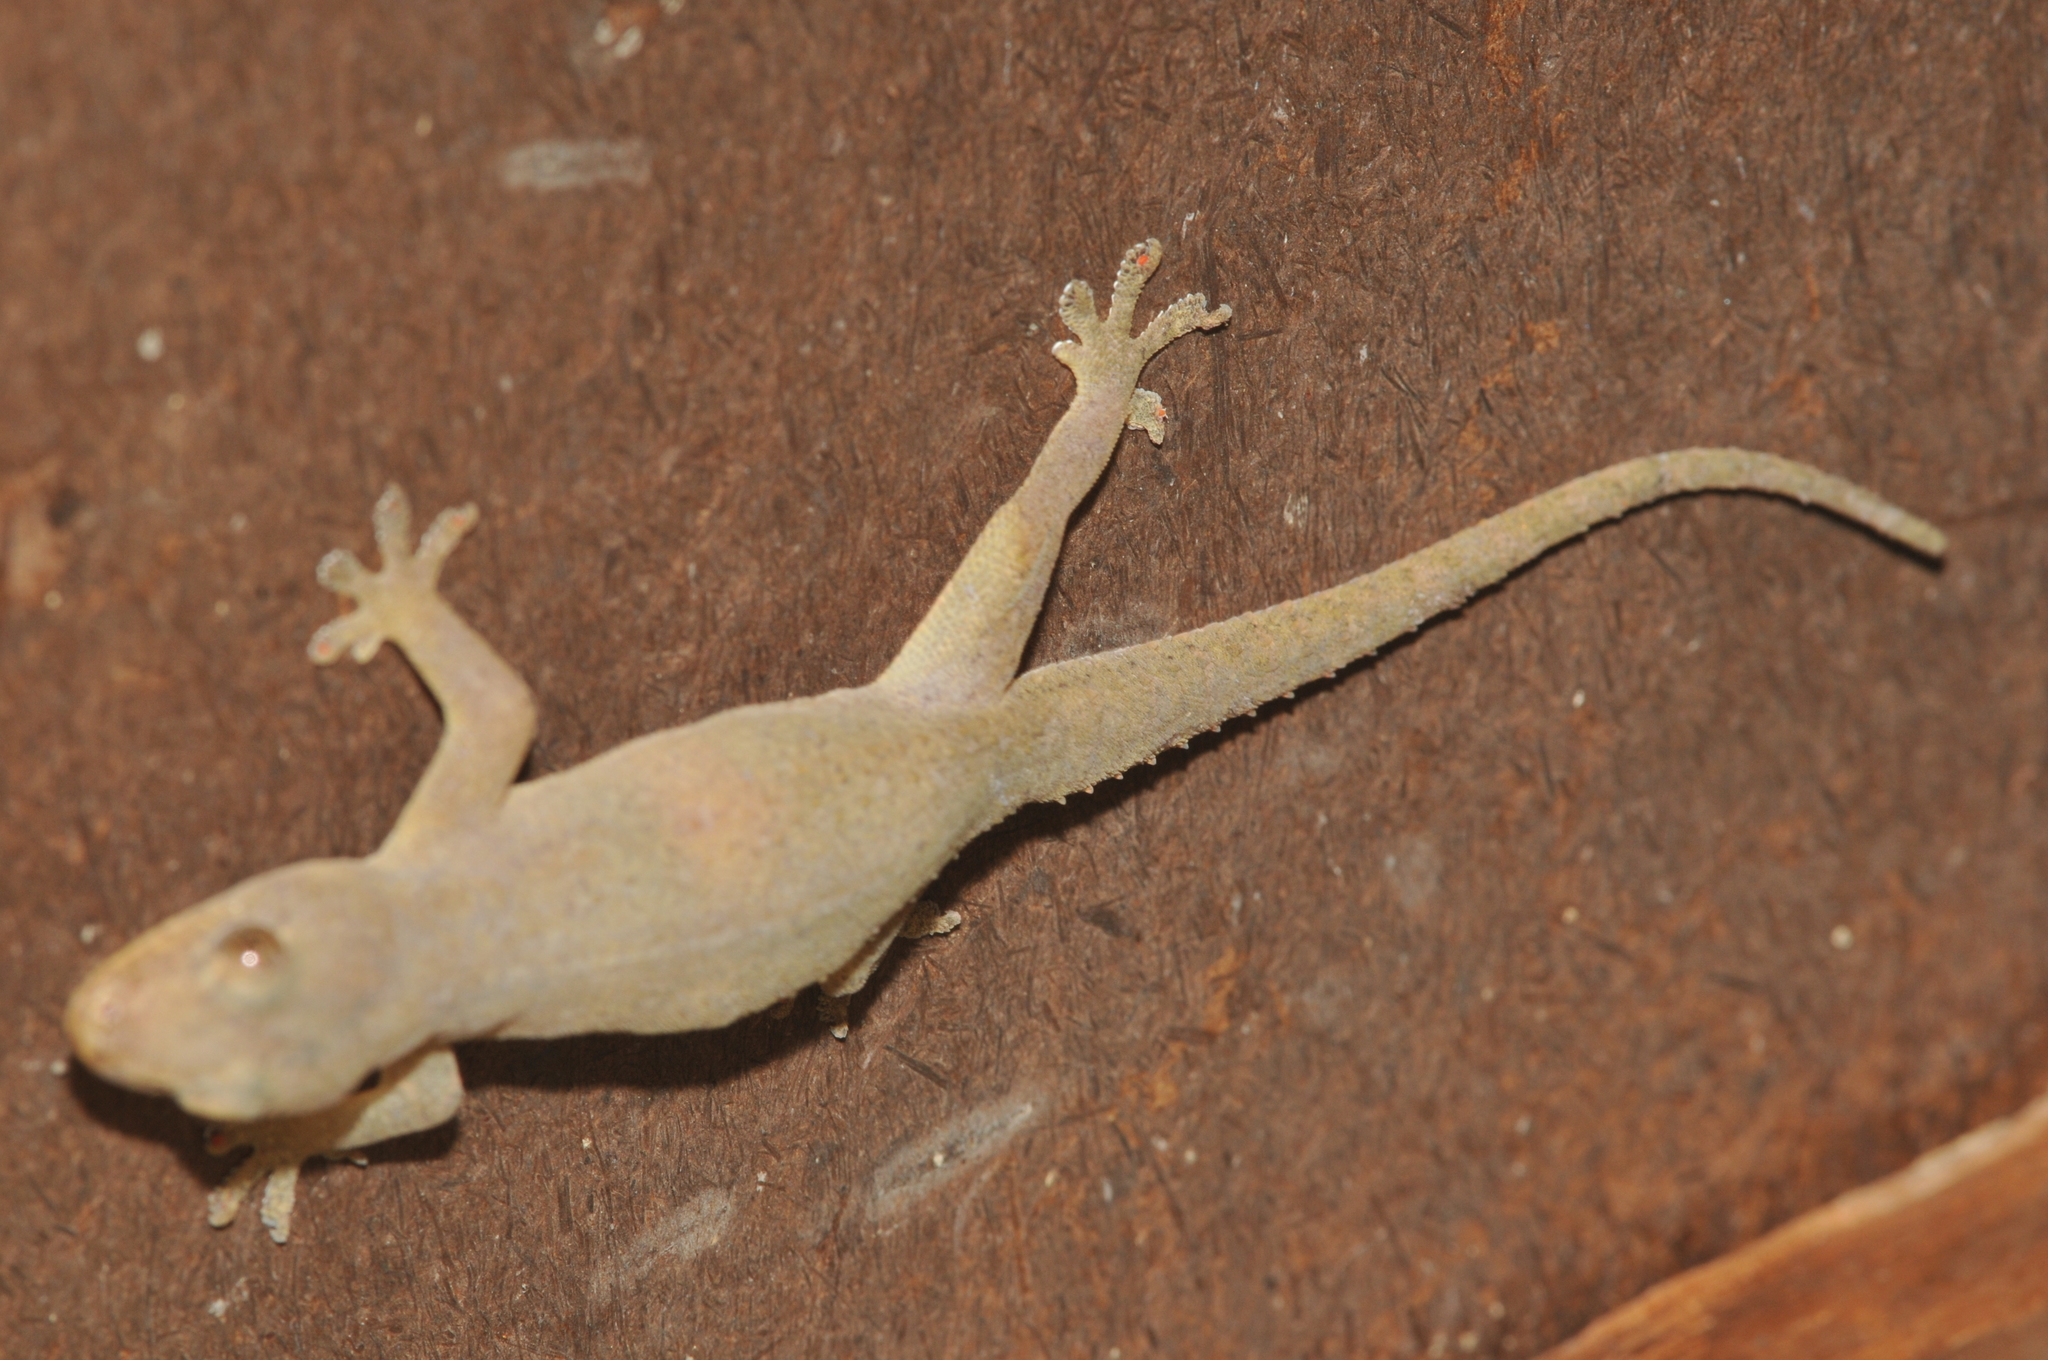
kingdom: Animalia
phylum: Chordata
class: Squamata
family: Gekkonidae
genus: Hemidactylus
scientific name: Hemidactylus frenatus
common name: Common house gecko
